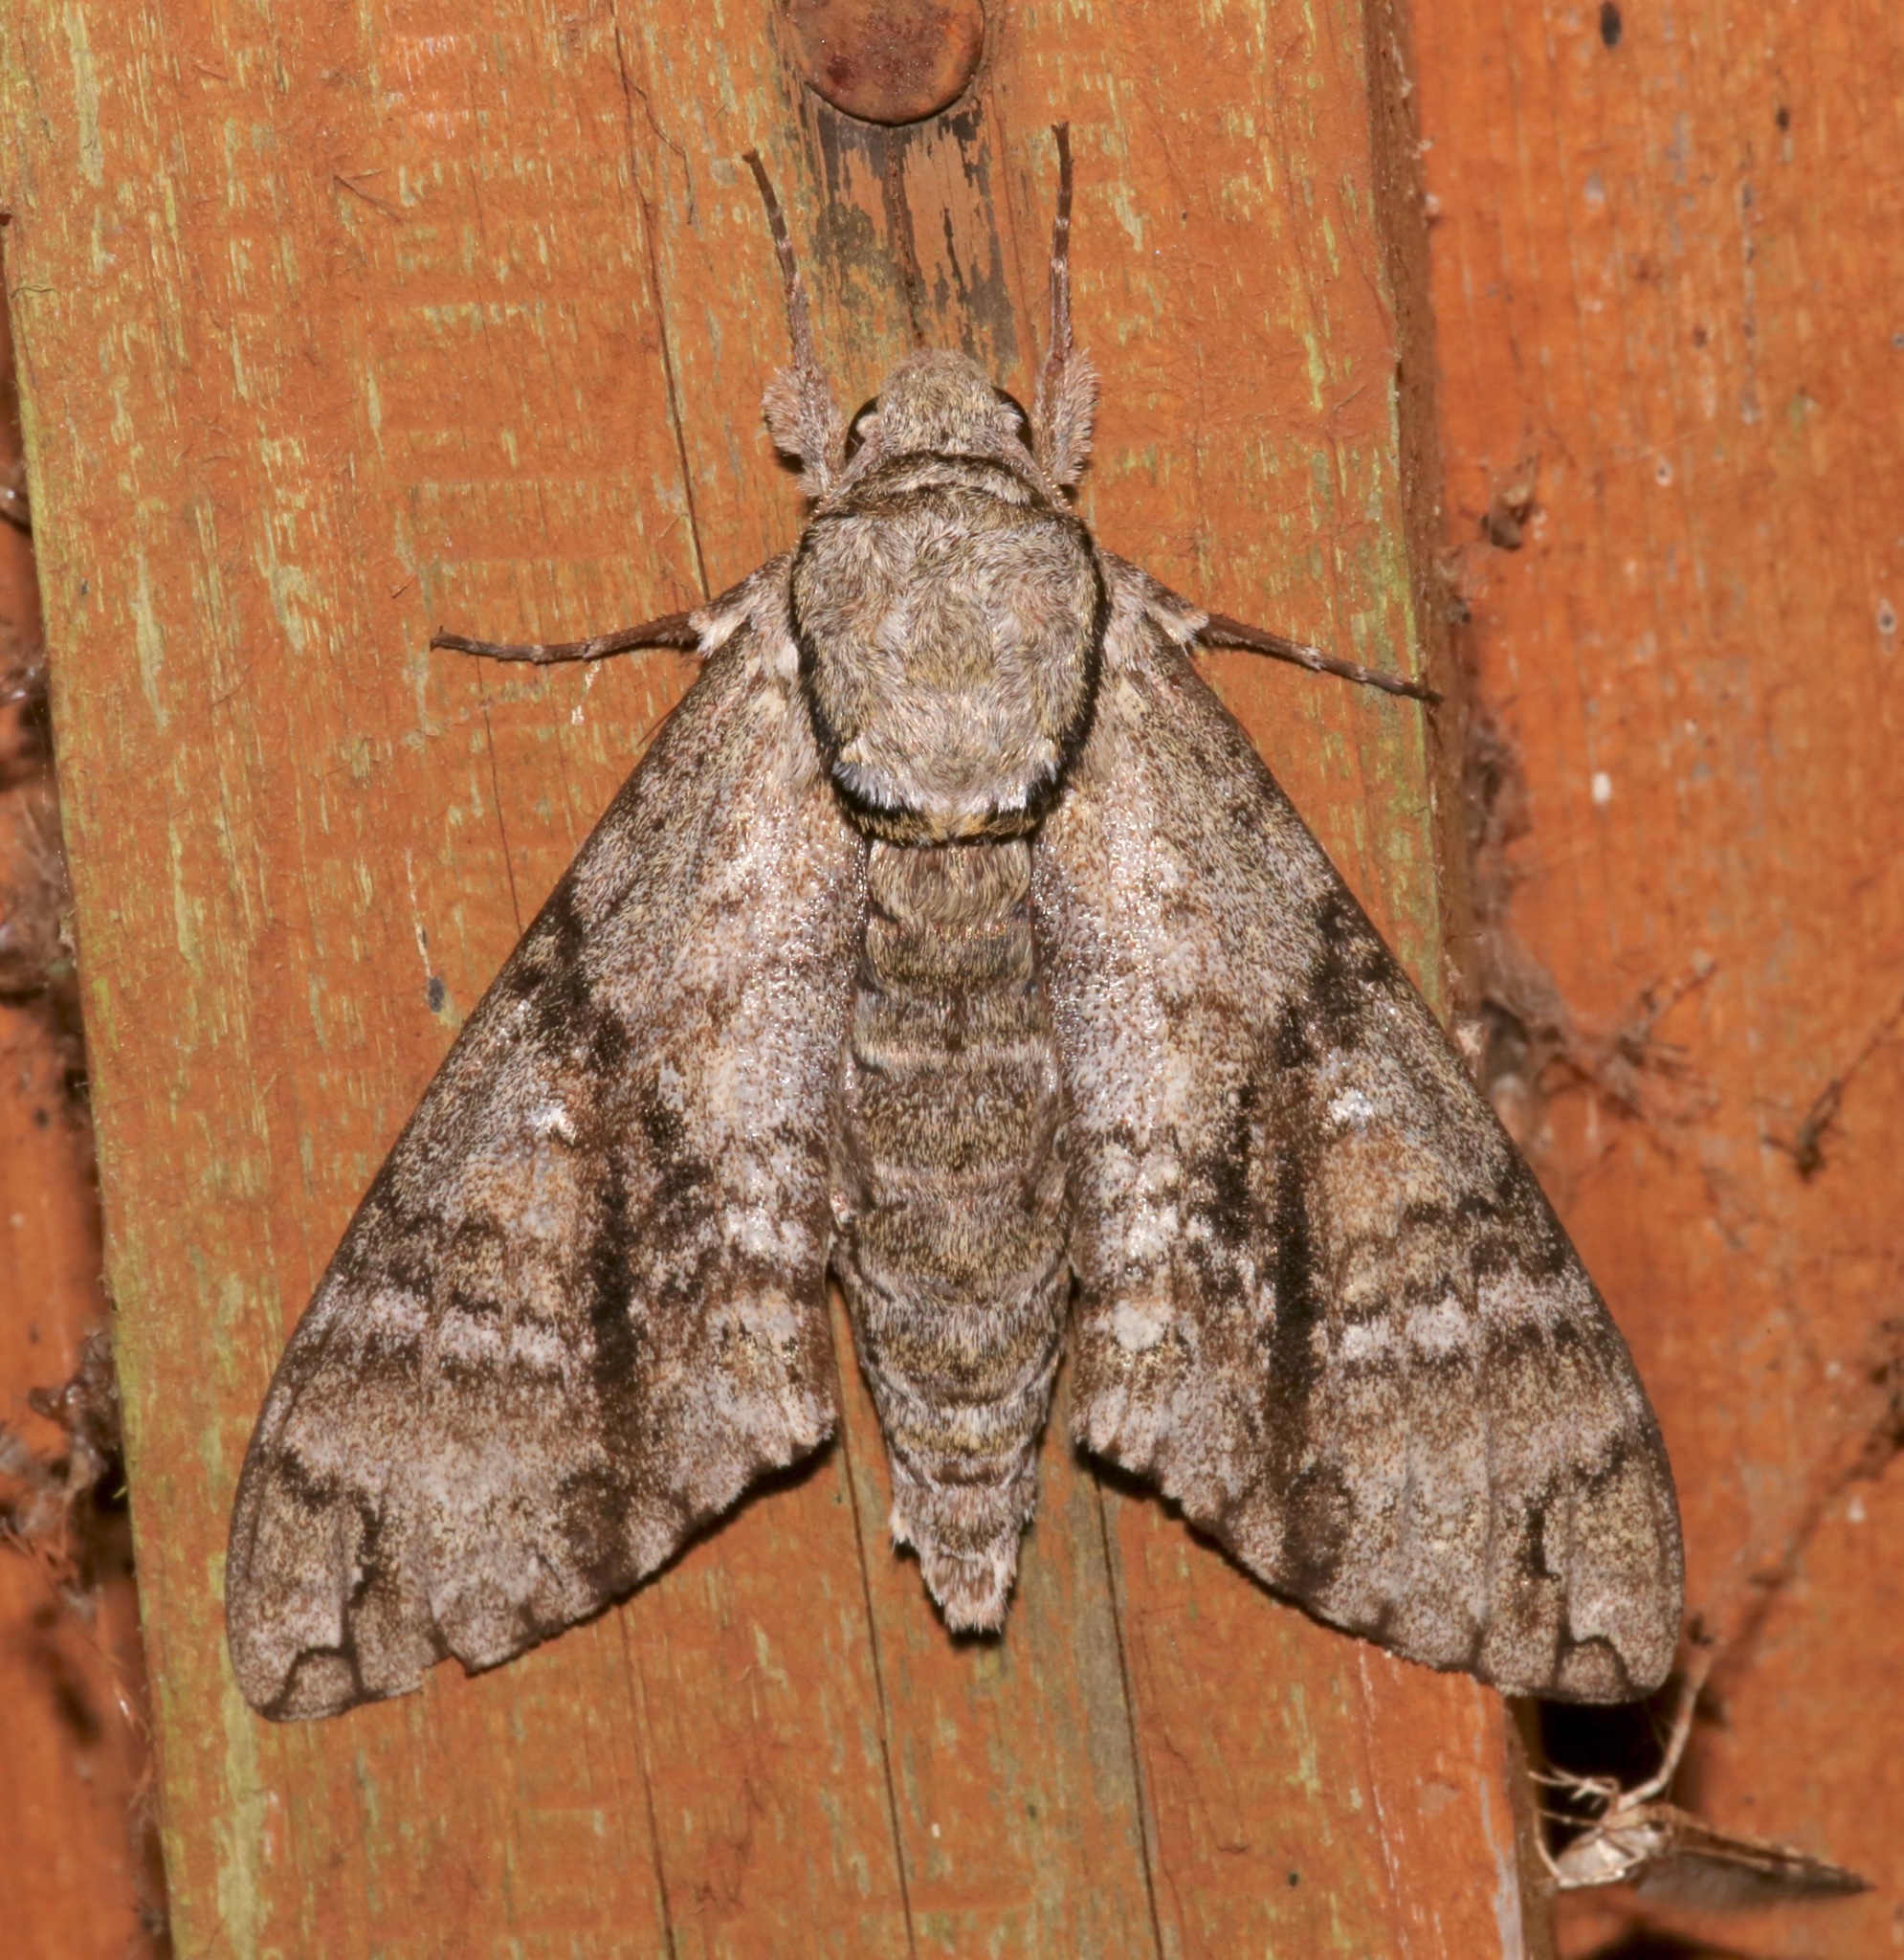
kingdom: Animalia
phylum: Arthropoda
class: Insecta
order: Lepidoptera
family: Sphingidae
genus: Manduca
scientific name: Manduca jasminearum
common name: Ash sphinx
